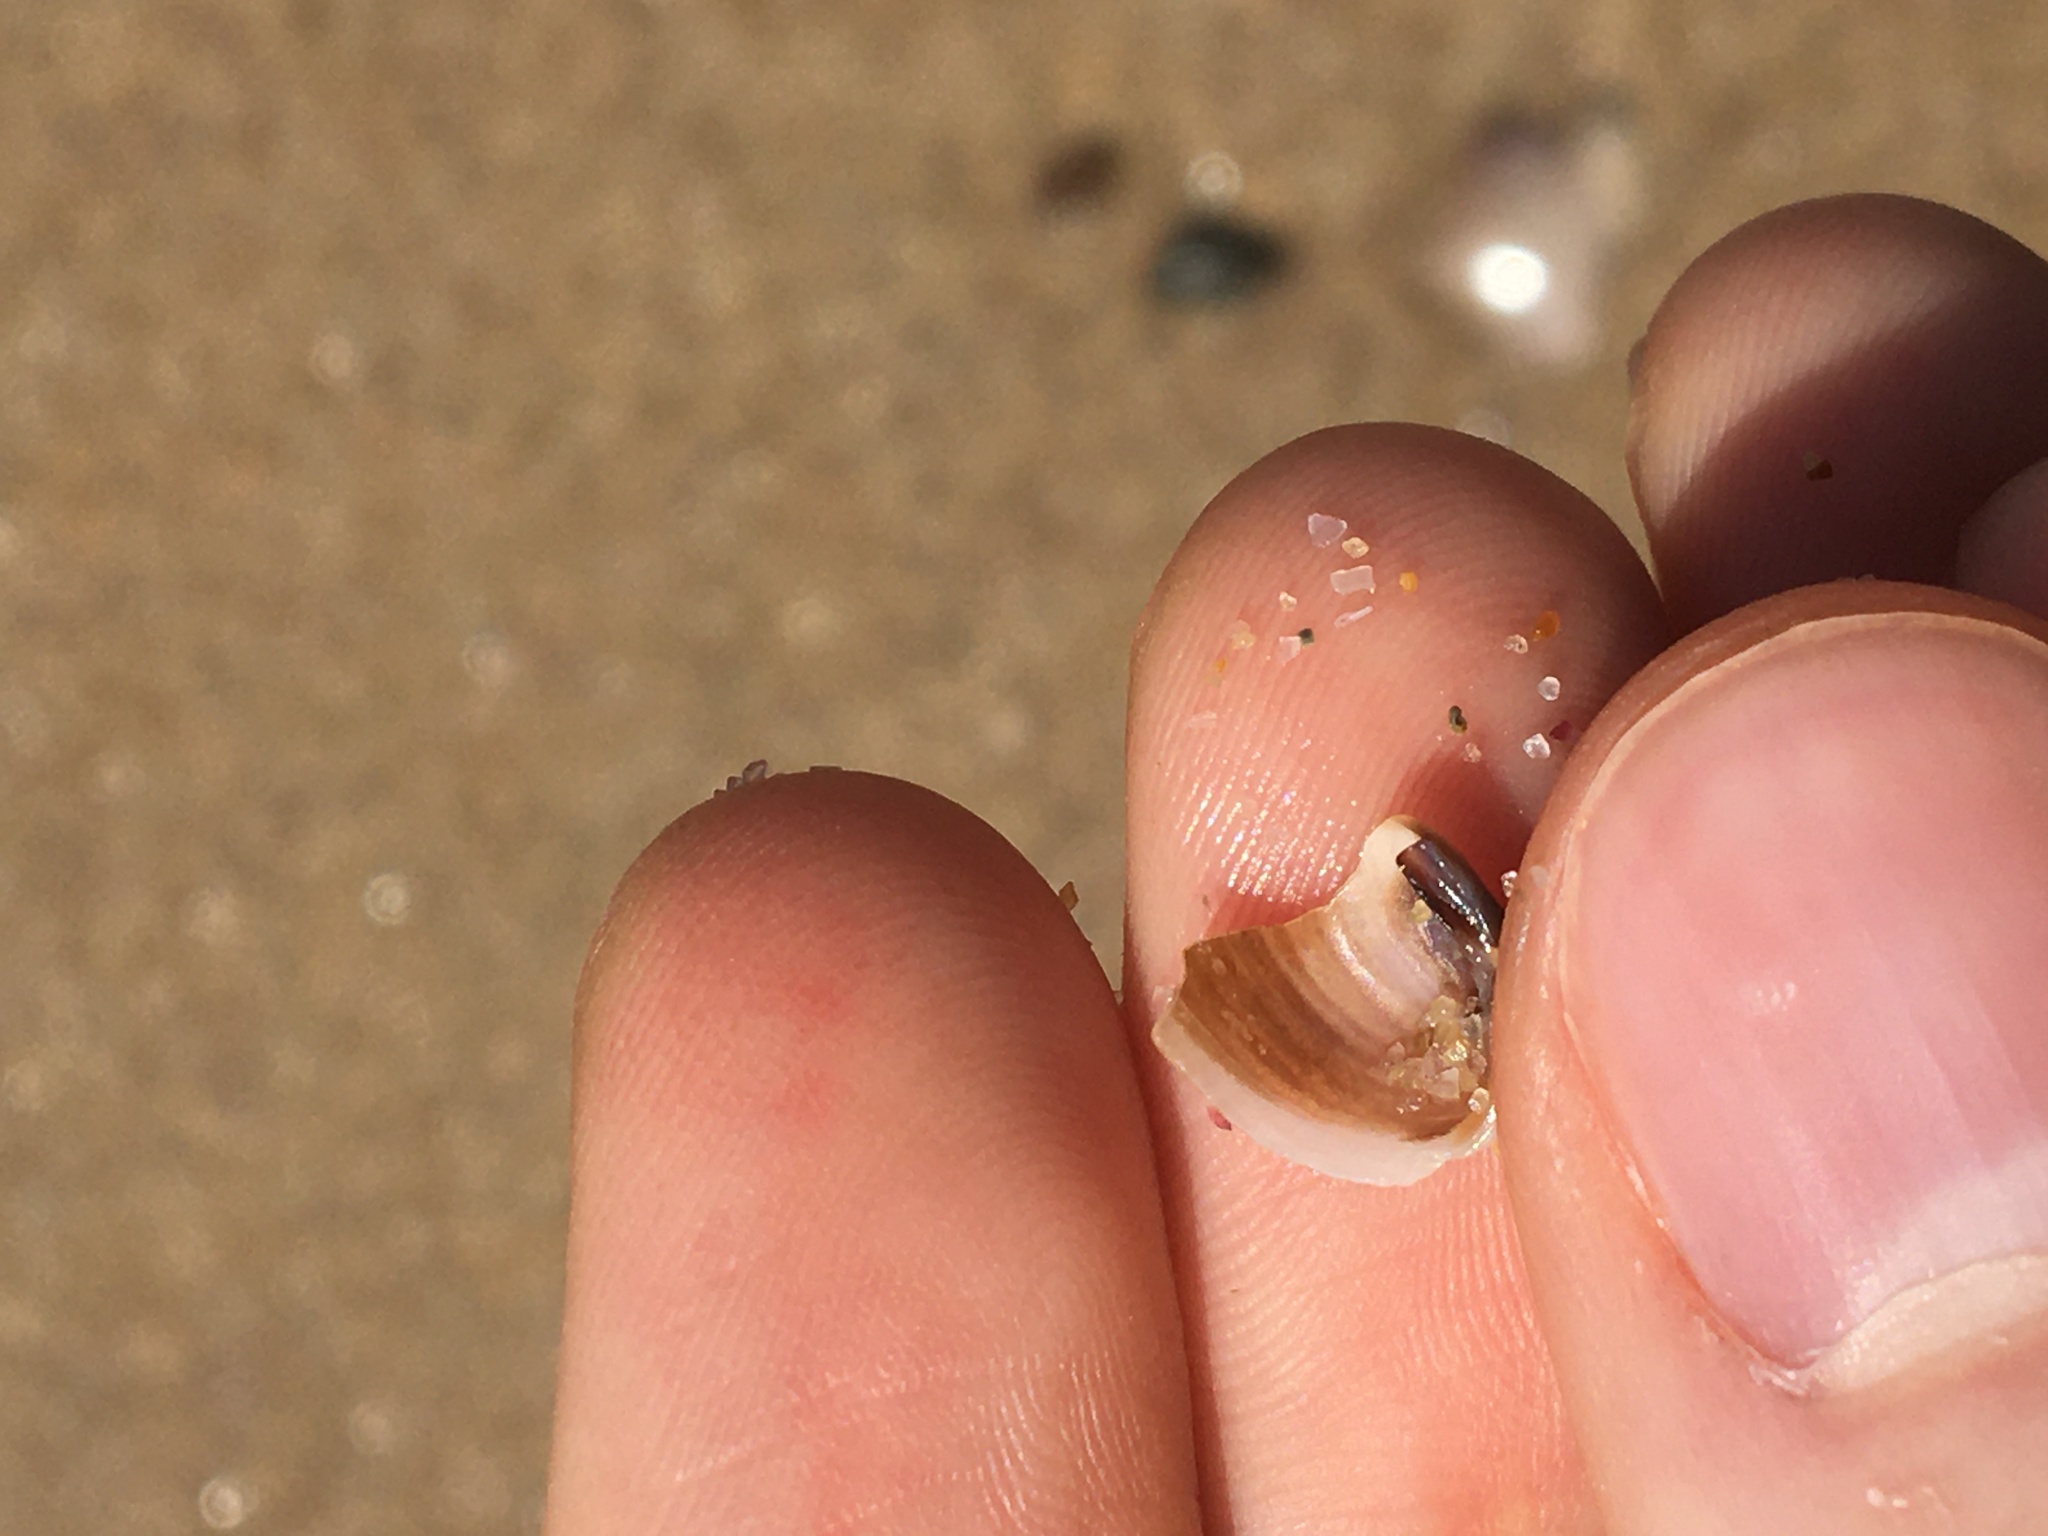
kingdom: Animalia
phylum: Mollusca
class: Bivalvia
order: Venerida
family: Veneridae
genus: Irus
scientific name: Irus crenatus
